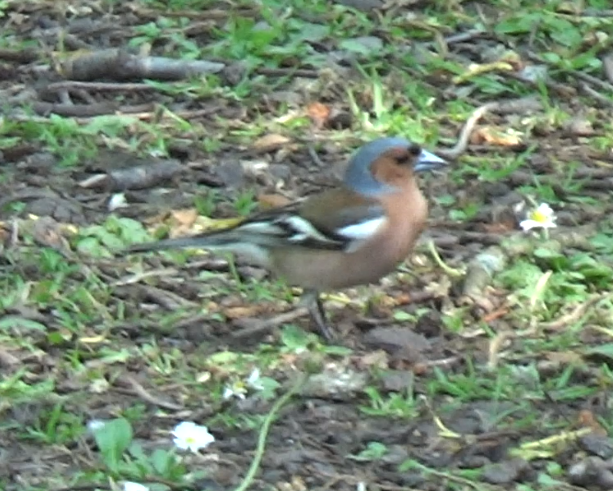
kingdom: Animalia
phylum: Chordata
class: Aves
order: Passeriformes
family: Fringillidae
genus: Fringilla
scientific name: Fringilla coelebs
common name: Common chaffinch
